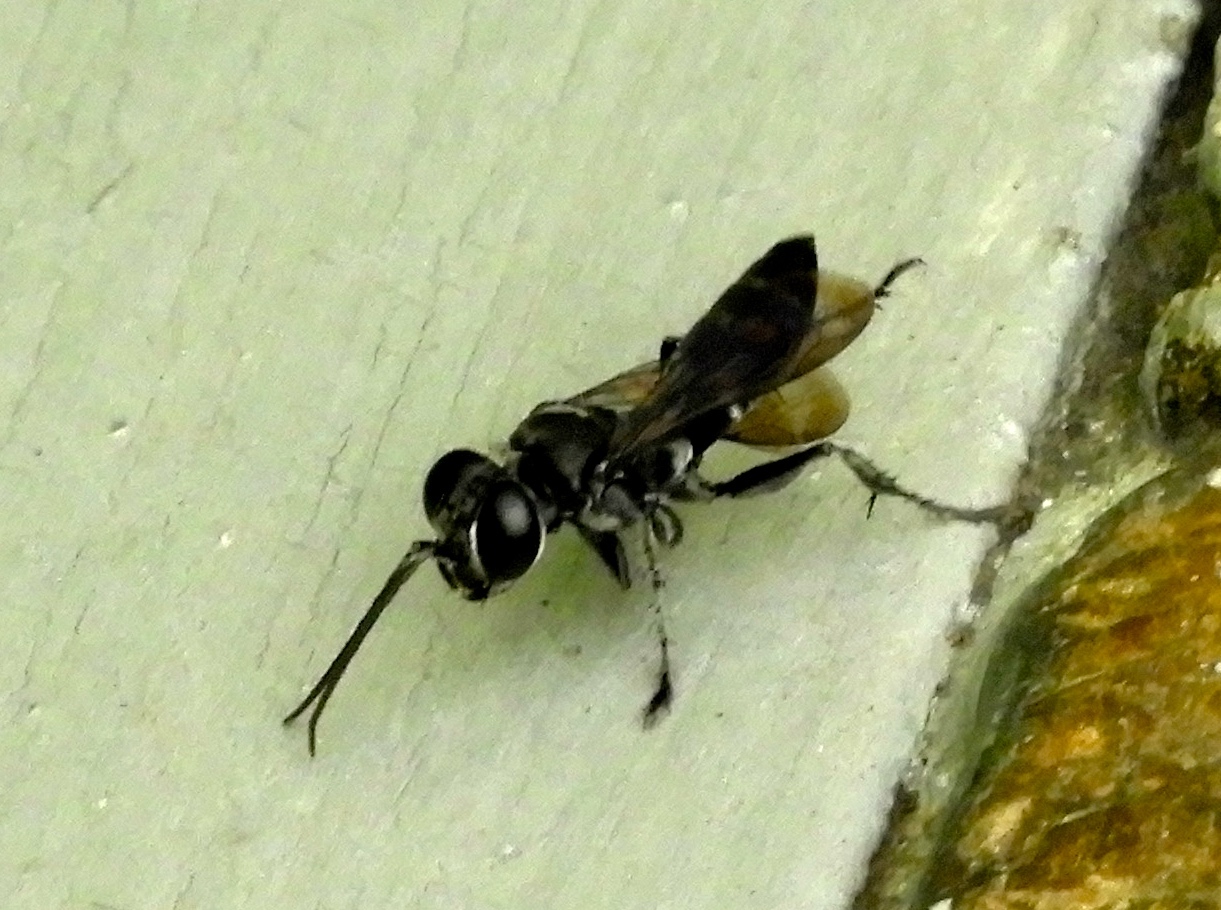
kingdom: Animalia
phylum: Arthropoda
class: Insecta
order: Hymenoptera
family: Crabronidae
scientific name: Crabronidae
